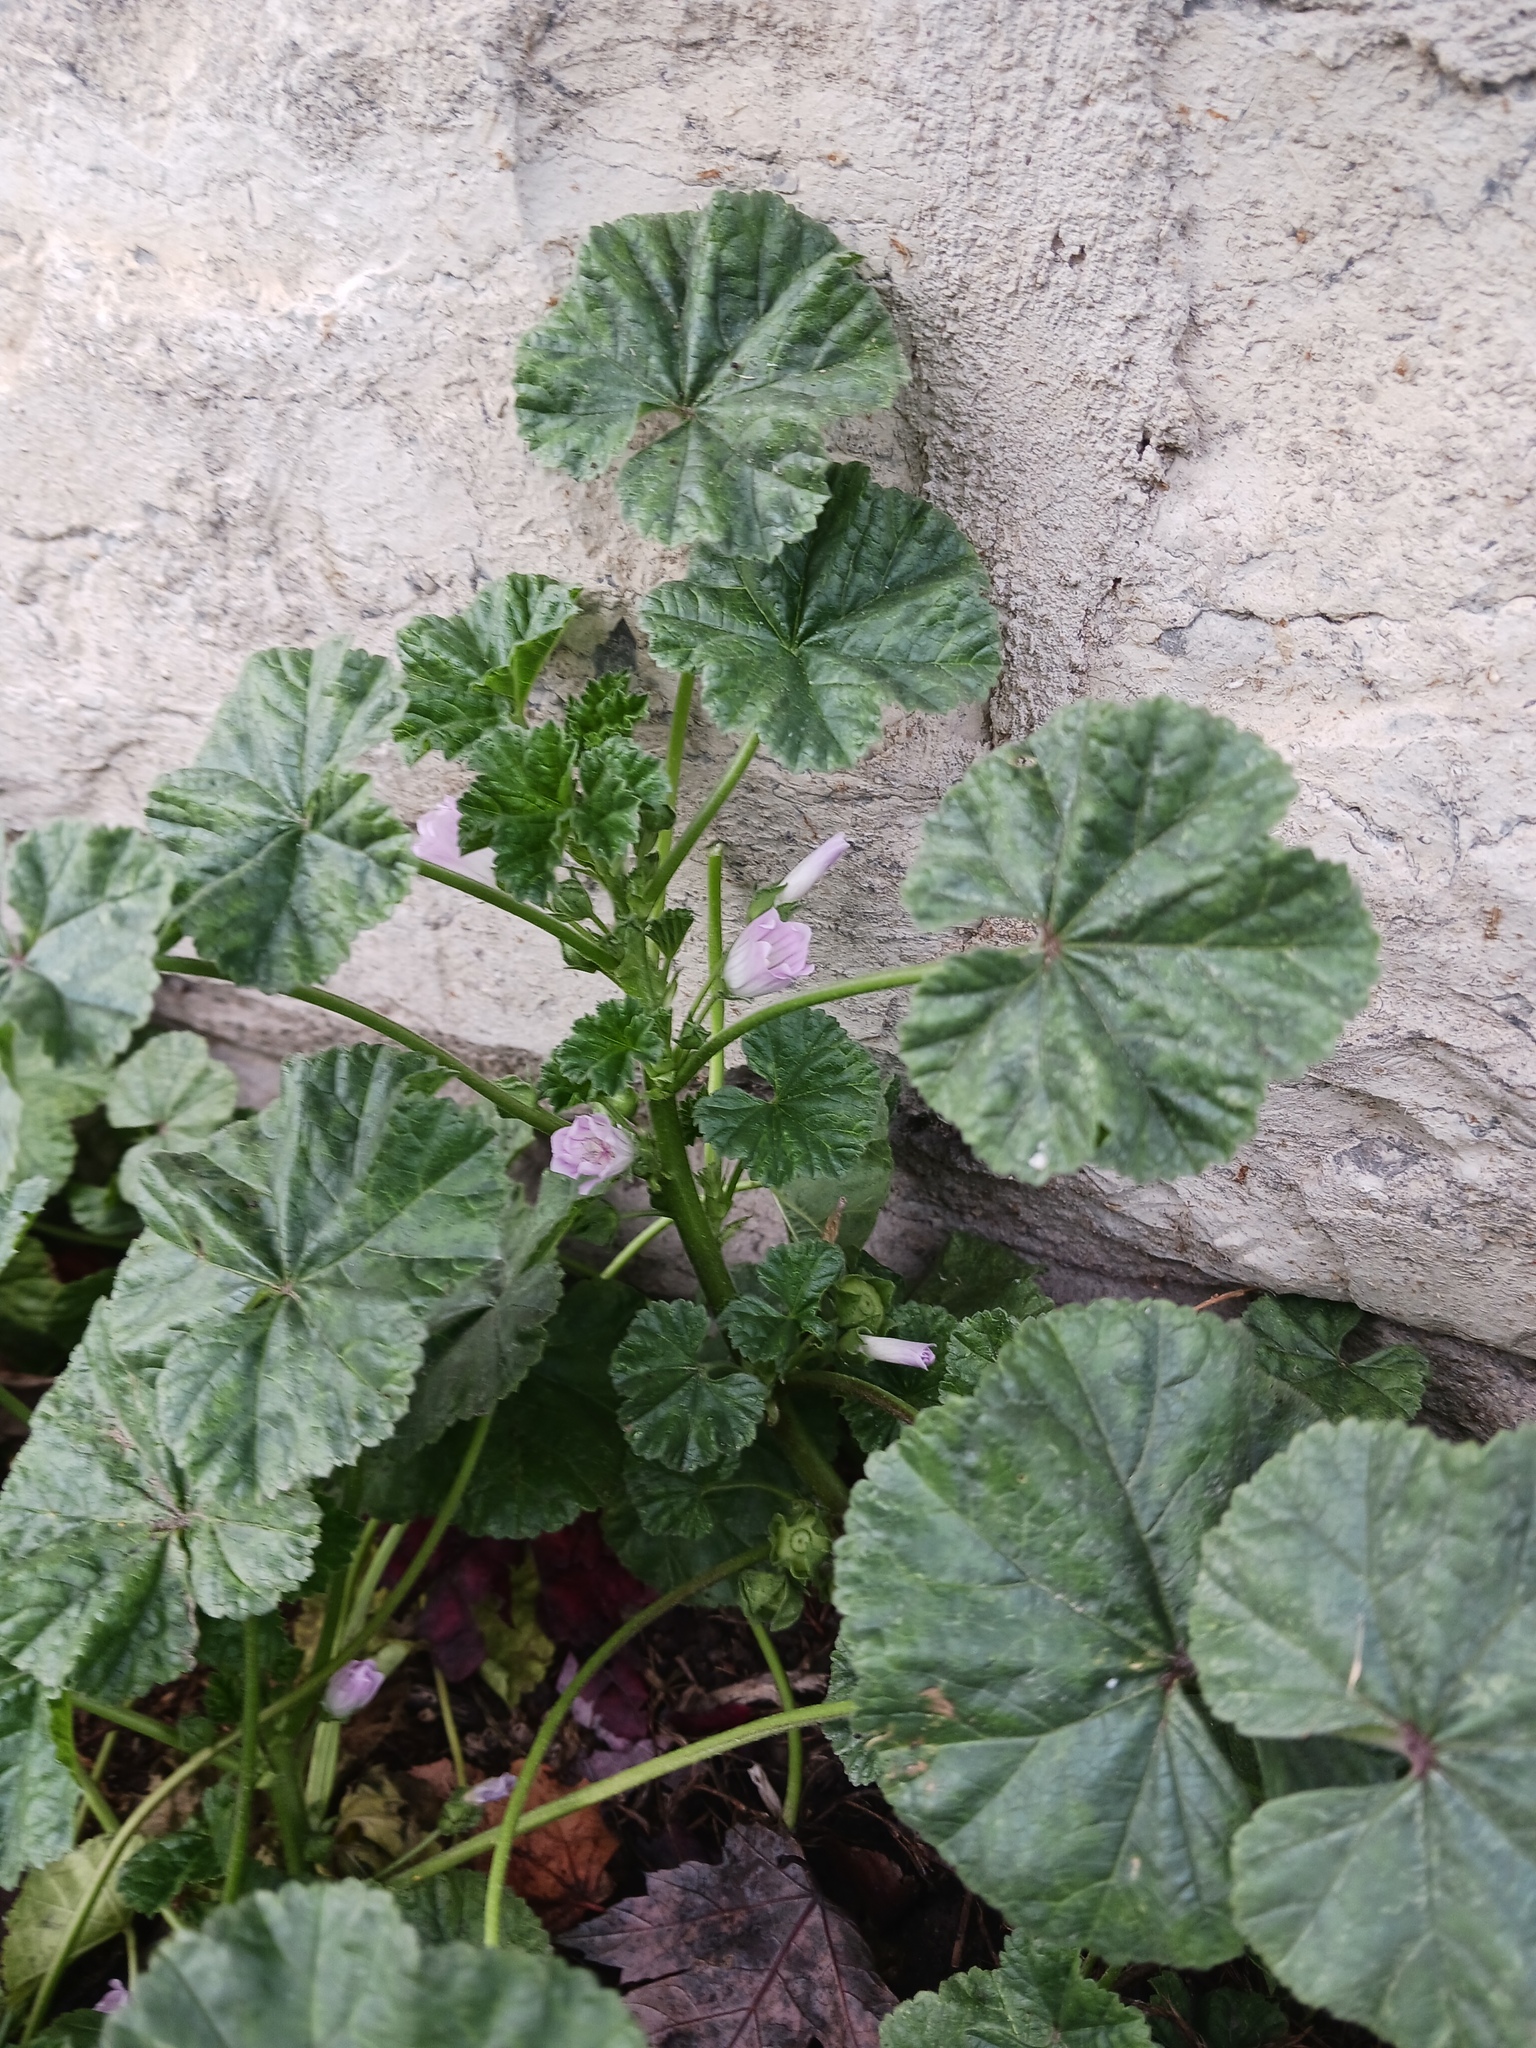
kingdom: Plantae
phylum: Tracheophyta
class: Magnoliopsida
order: Malvales
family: Malvaceae
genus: Malva
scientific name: Malva neglecta
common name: Common mallow
